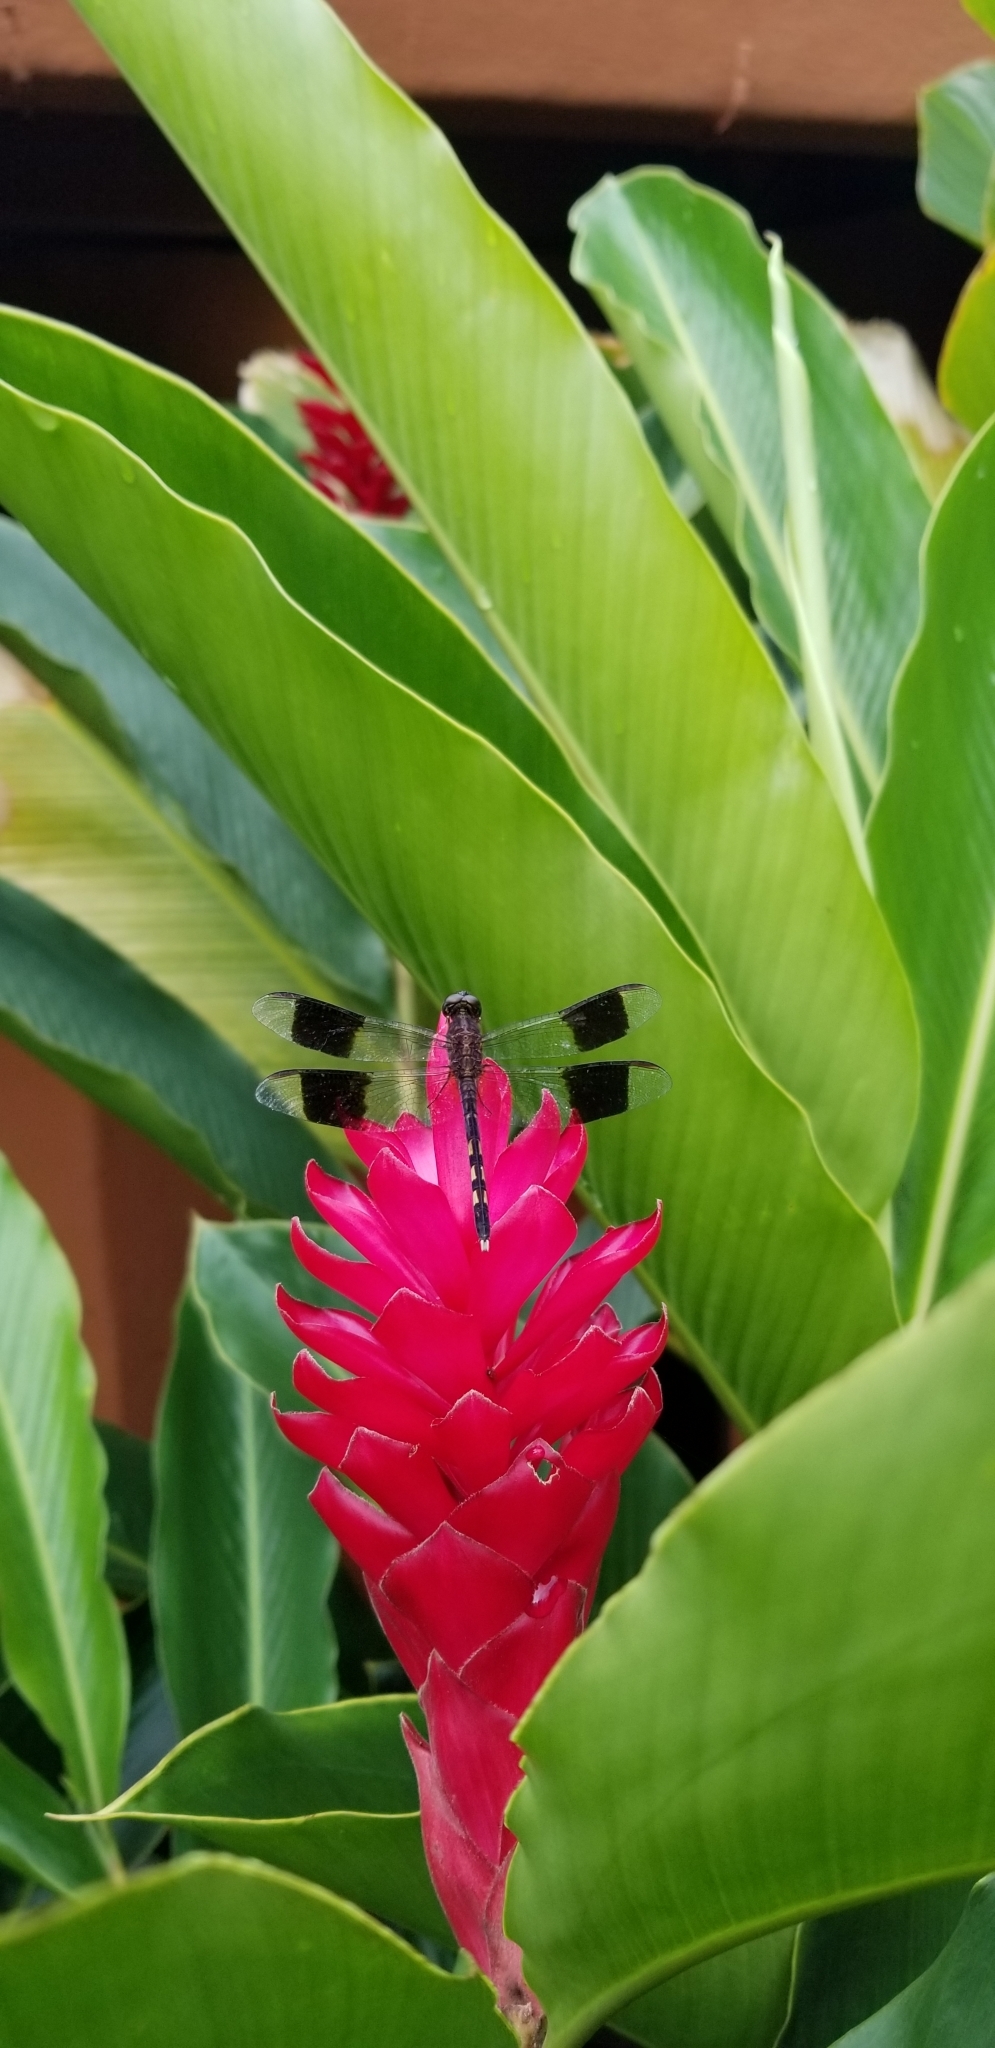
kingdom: Animalia
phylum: Arthropoda
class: Insecta
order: Odonata
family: Libellulidae
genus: Erythrodiplax
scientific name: Erythrodiplax umbrata
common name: Band-winged dragonlet
